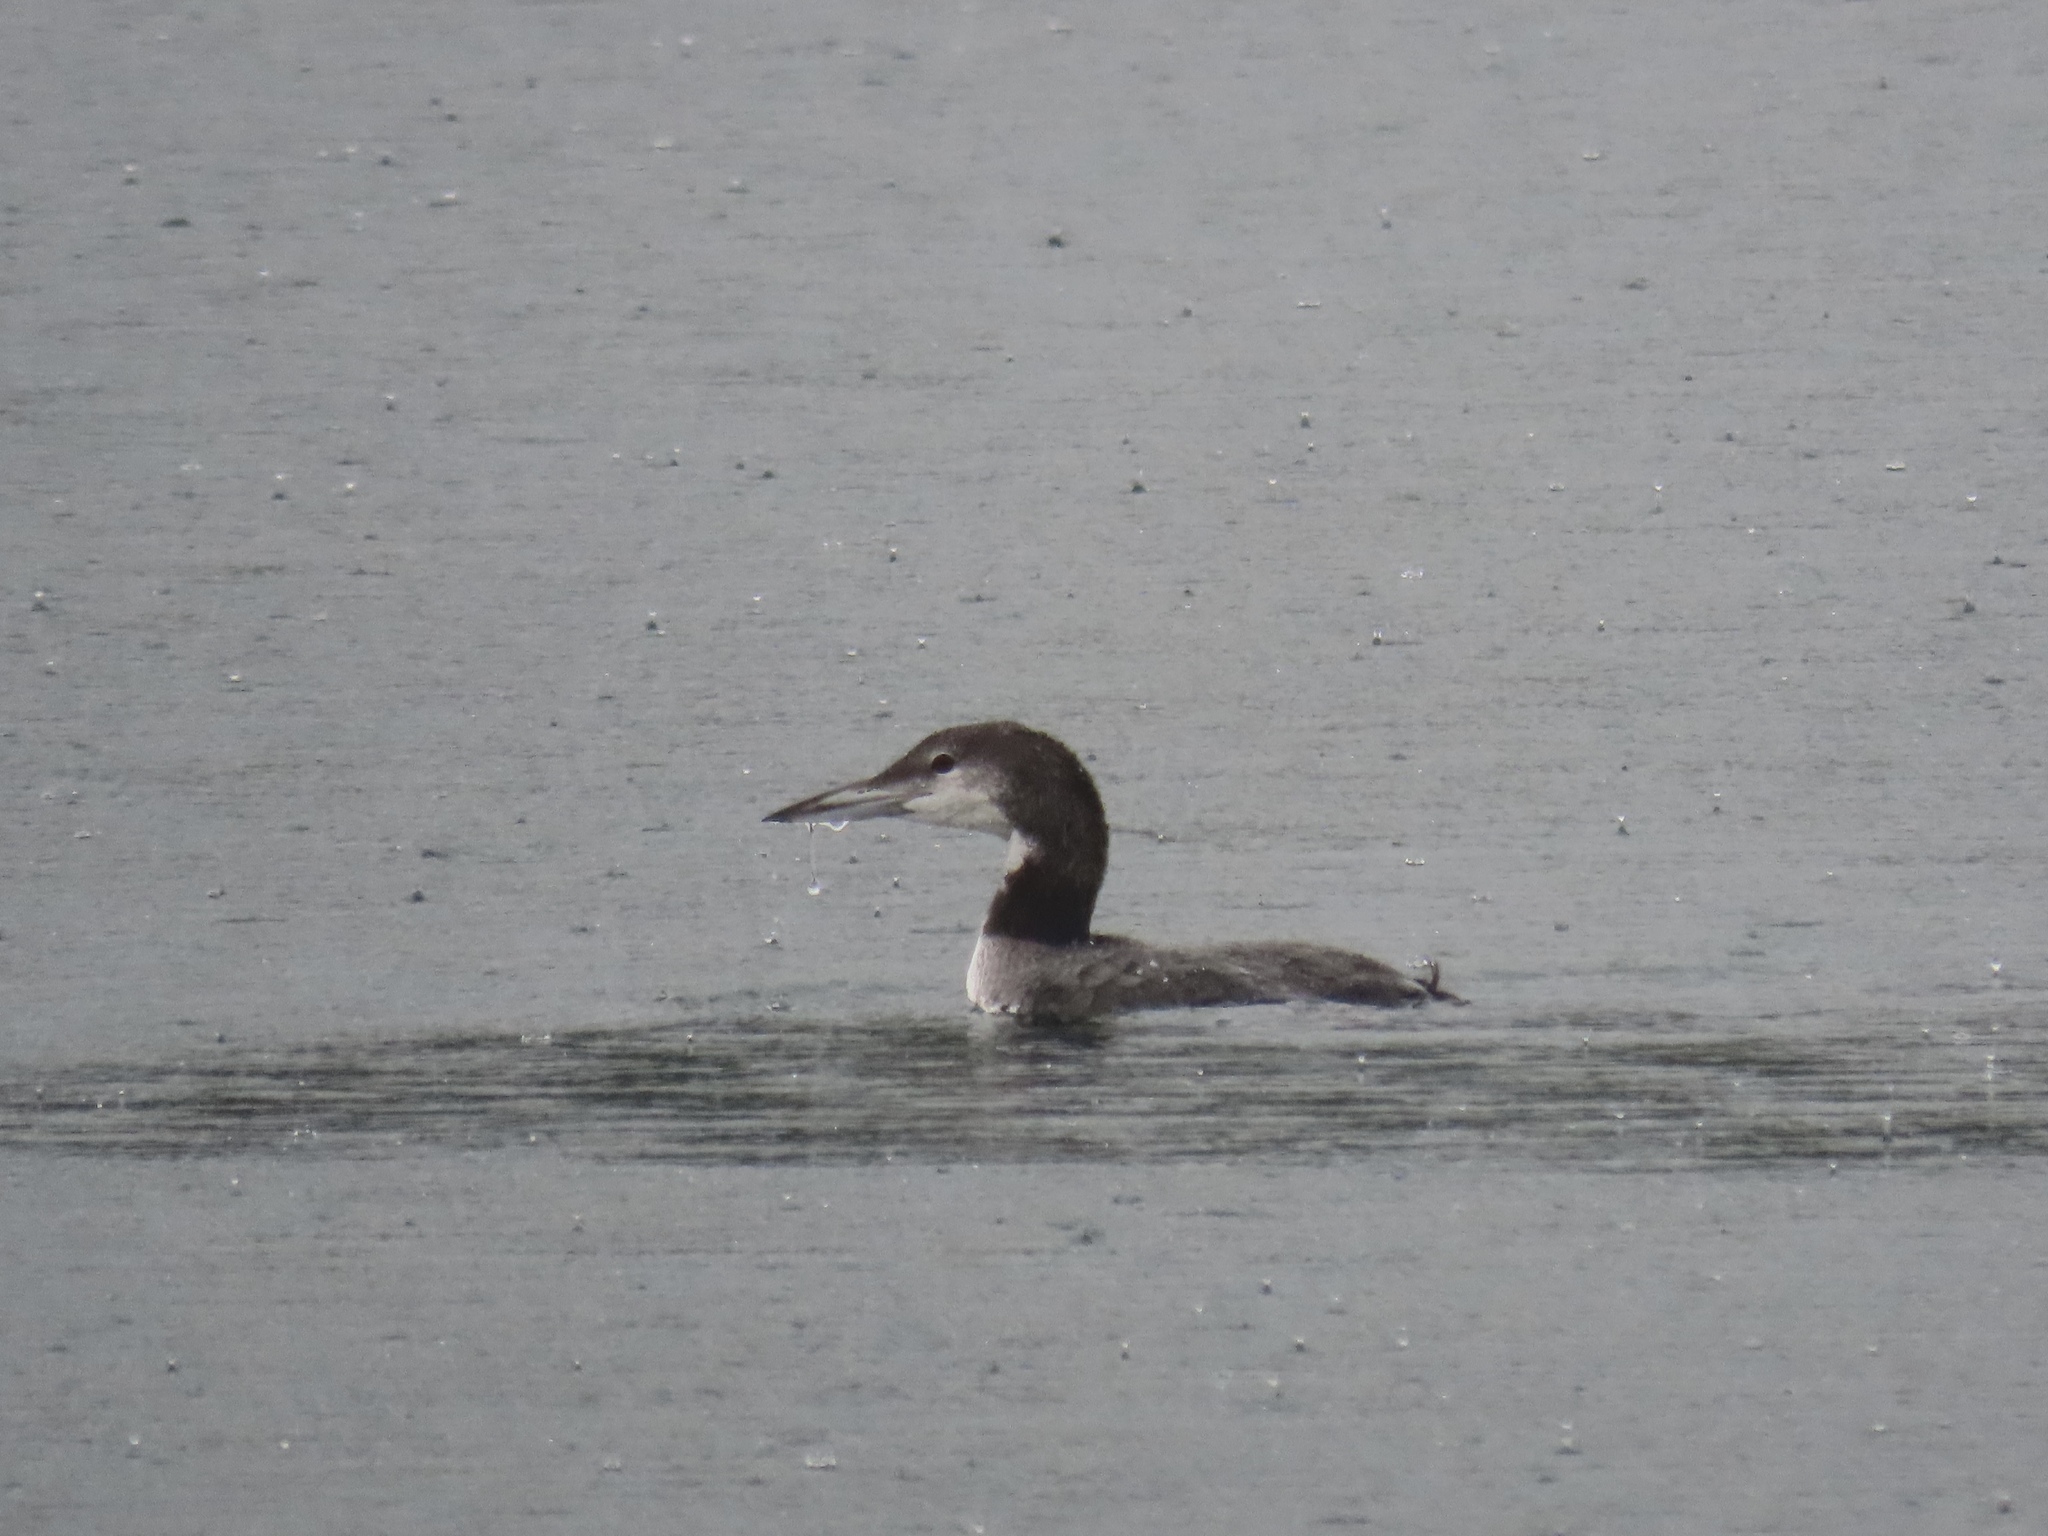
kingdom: Animalia
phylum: Chordata
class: Aves
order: Gaviiformes
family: Gaviidae
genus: Gavia
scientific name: Gavia immer
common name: Common loon
